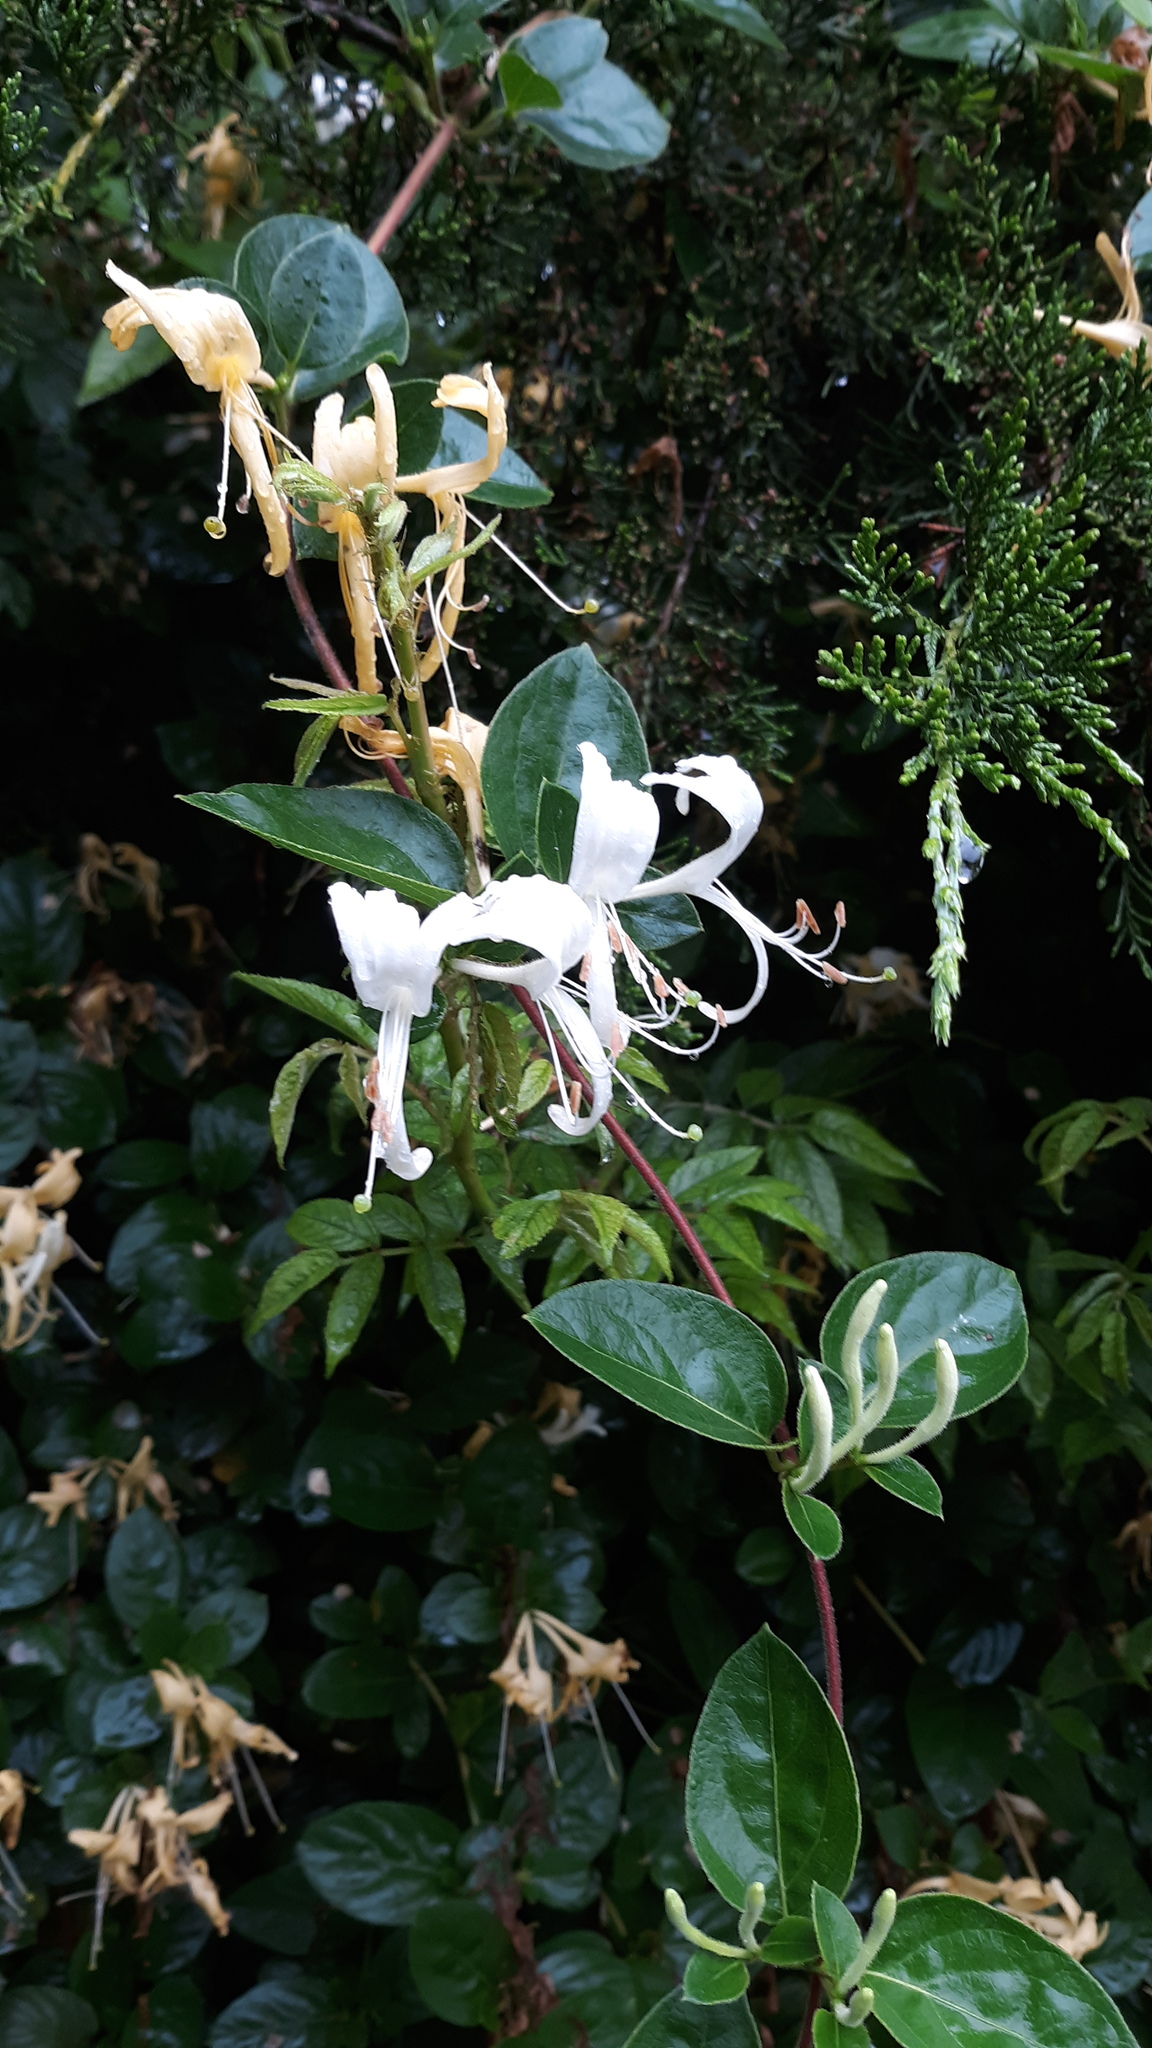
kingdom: Plantae
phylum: Tracheophyta
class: Magnoliopsida
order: Dipsacales
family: Caprifoliaceae
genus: Lonicera
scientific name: Lonicera japonica
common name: Japanese honeysuckle
